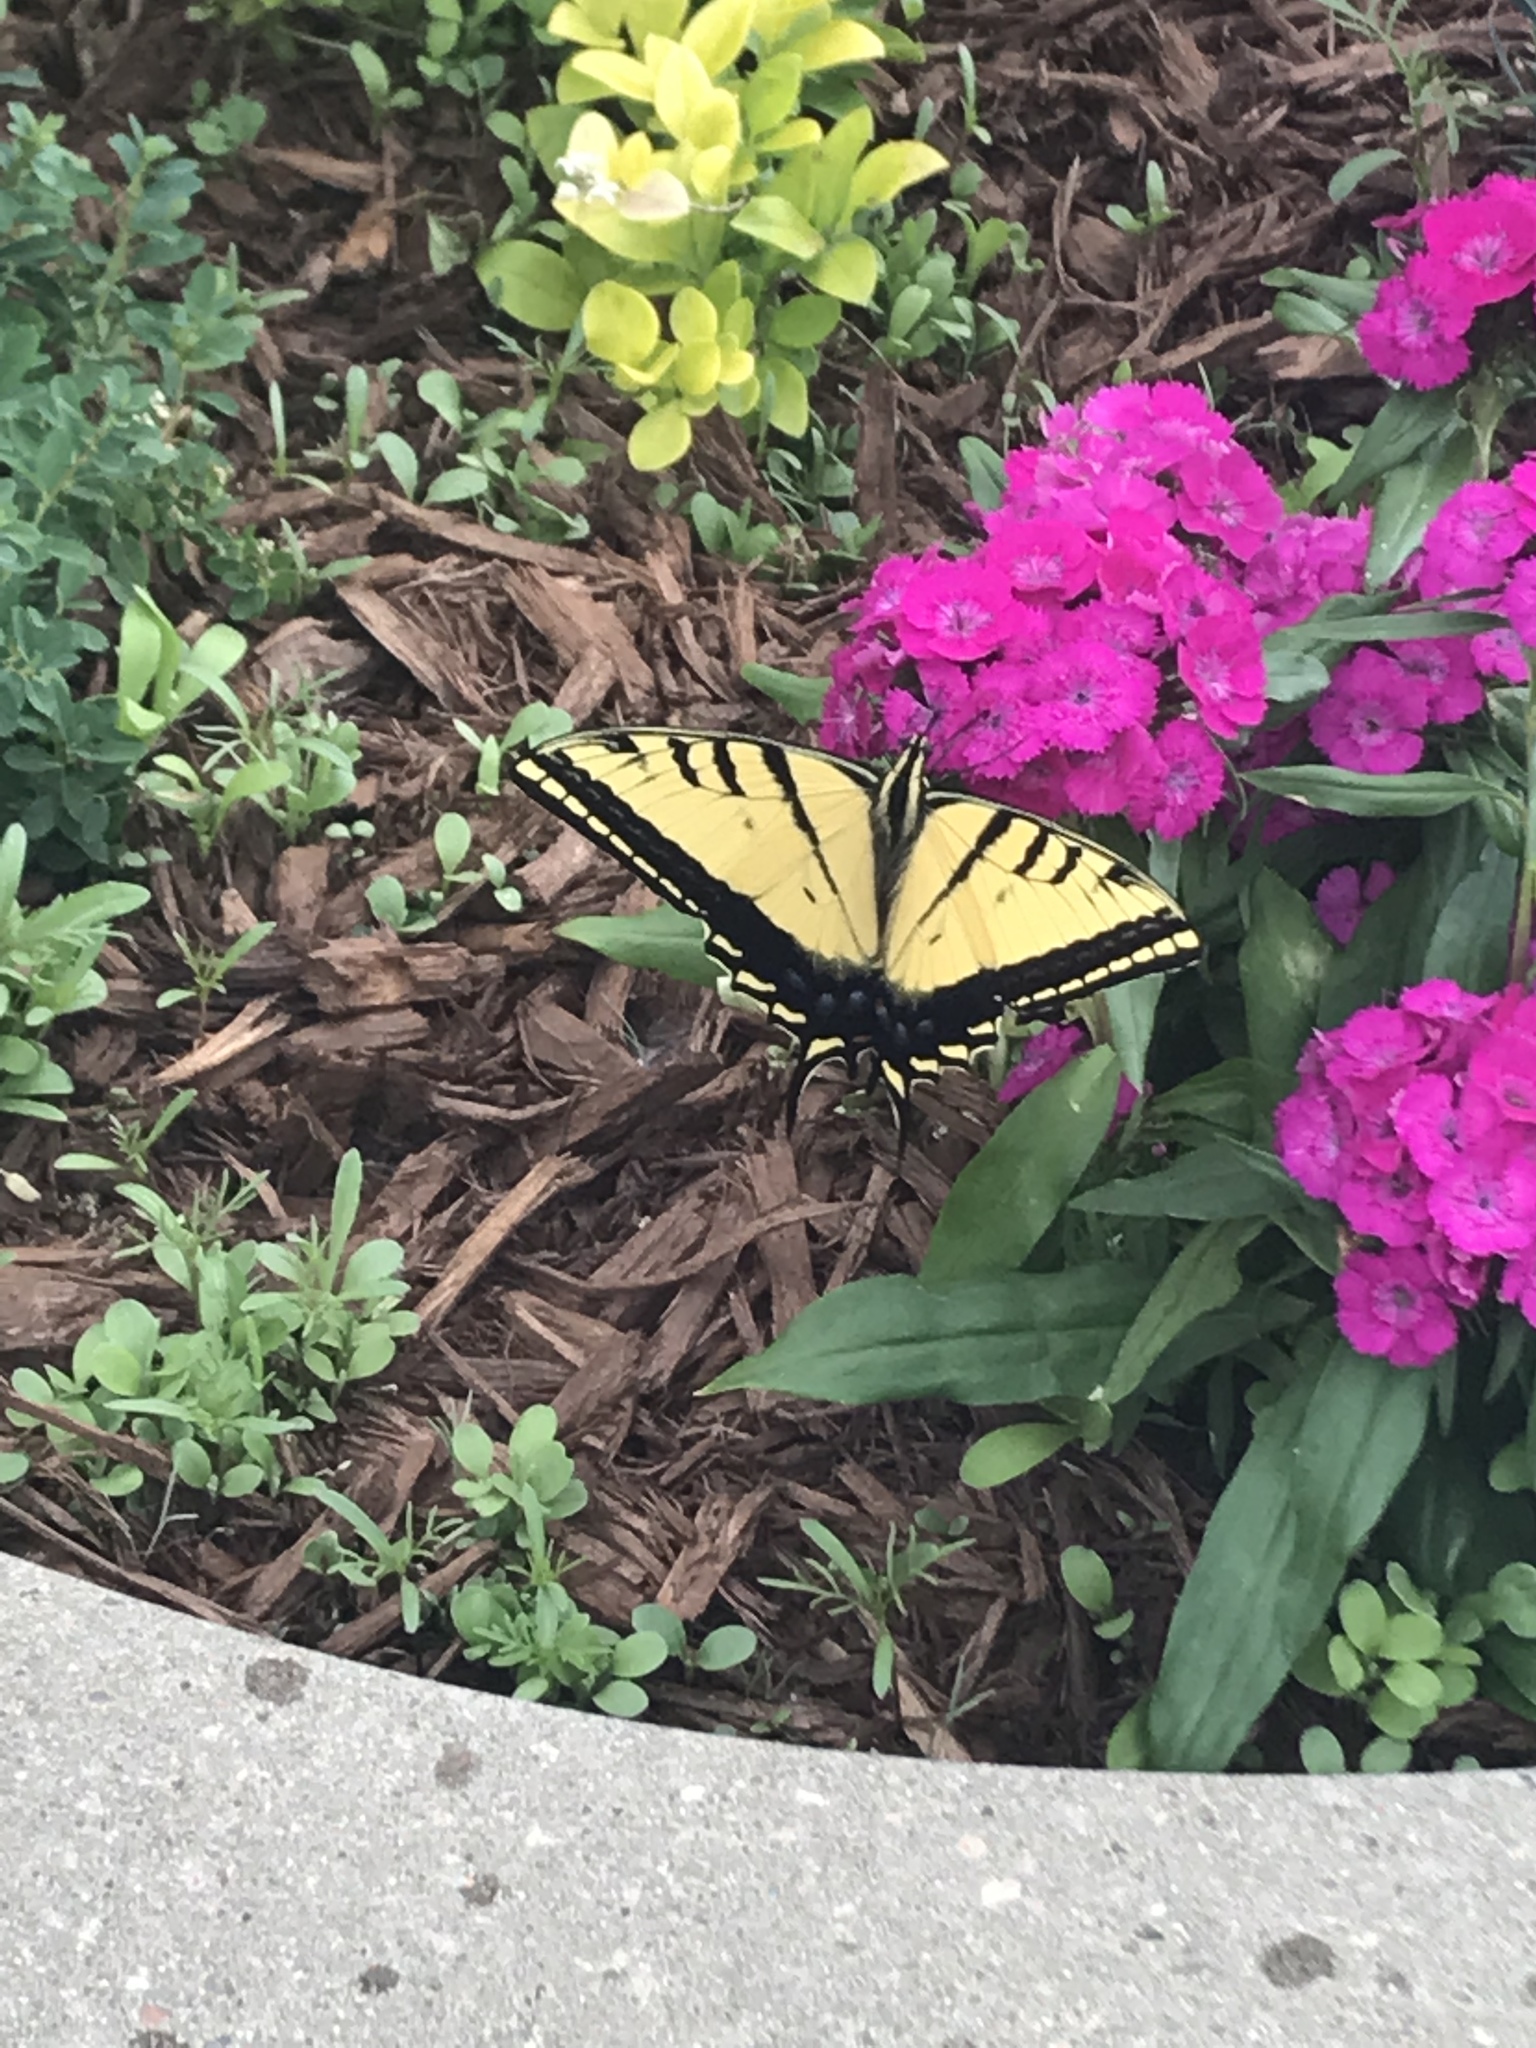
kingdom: Animalia
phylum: Arthropoda
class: Insecta
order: Lepidoptera
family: Papilionidae
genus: Papilio
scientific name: Papilio multicaudata
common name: Two-tailed tiger swallowtail
